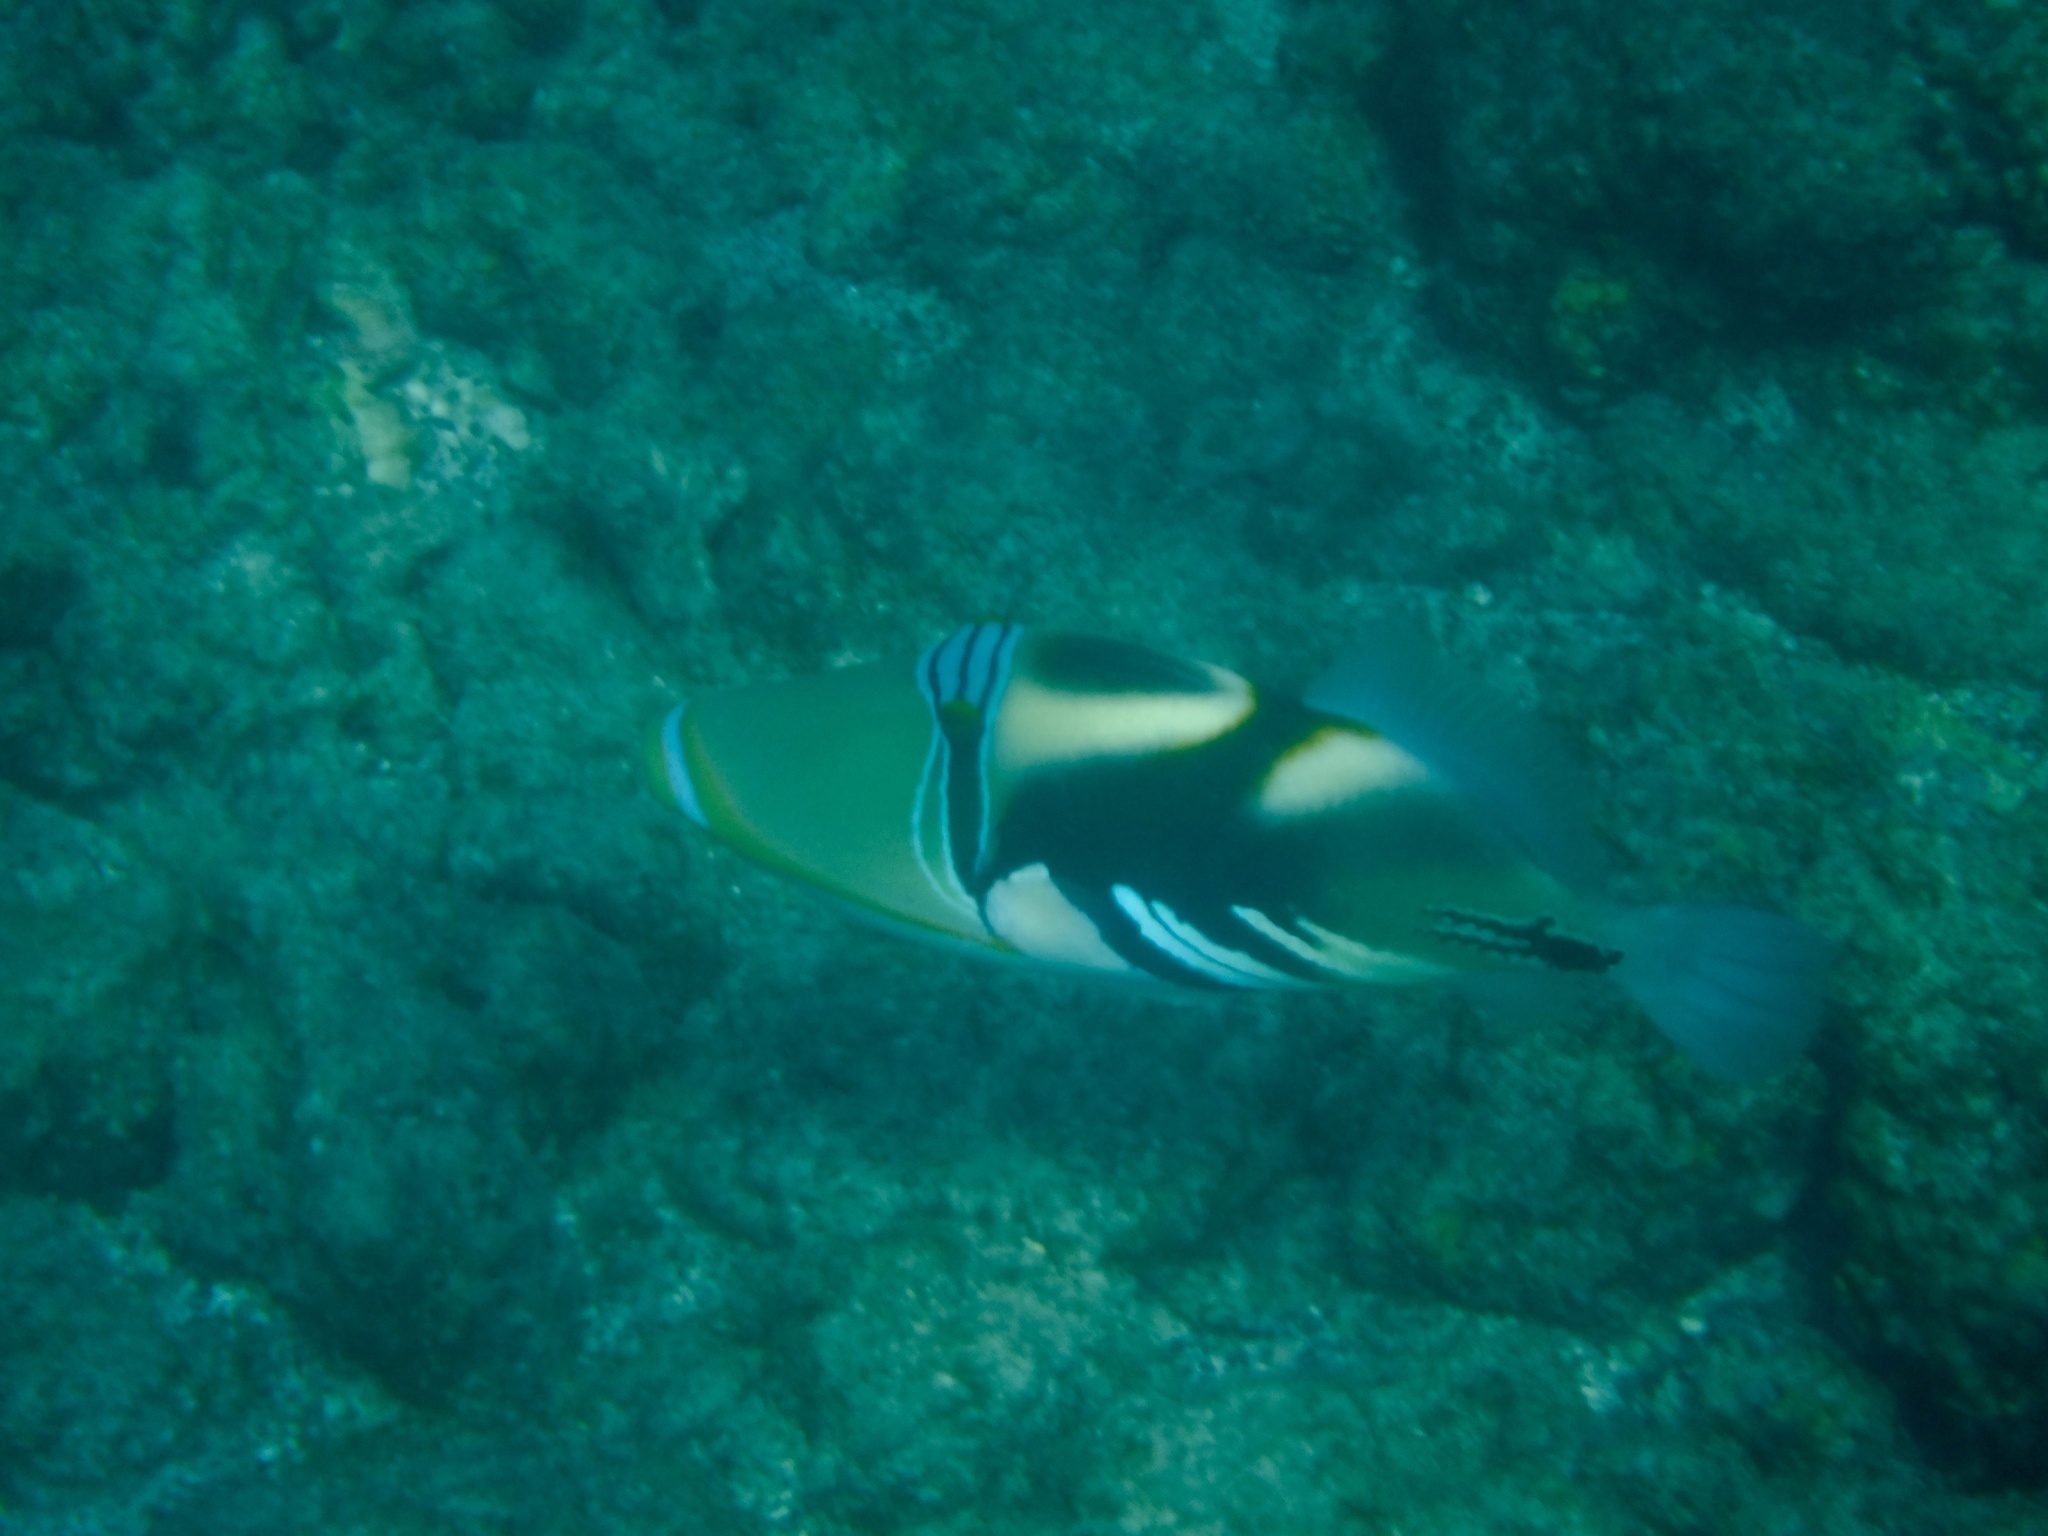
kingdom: Animalia
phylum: Chordata
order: Tetraodontiformes
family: Balistidae
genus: Rhinecanthus
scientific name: Rhinecanthus aculeatus
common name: White-banded triggerfish
